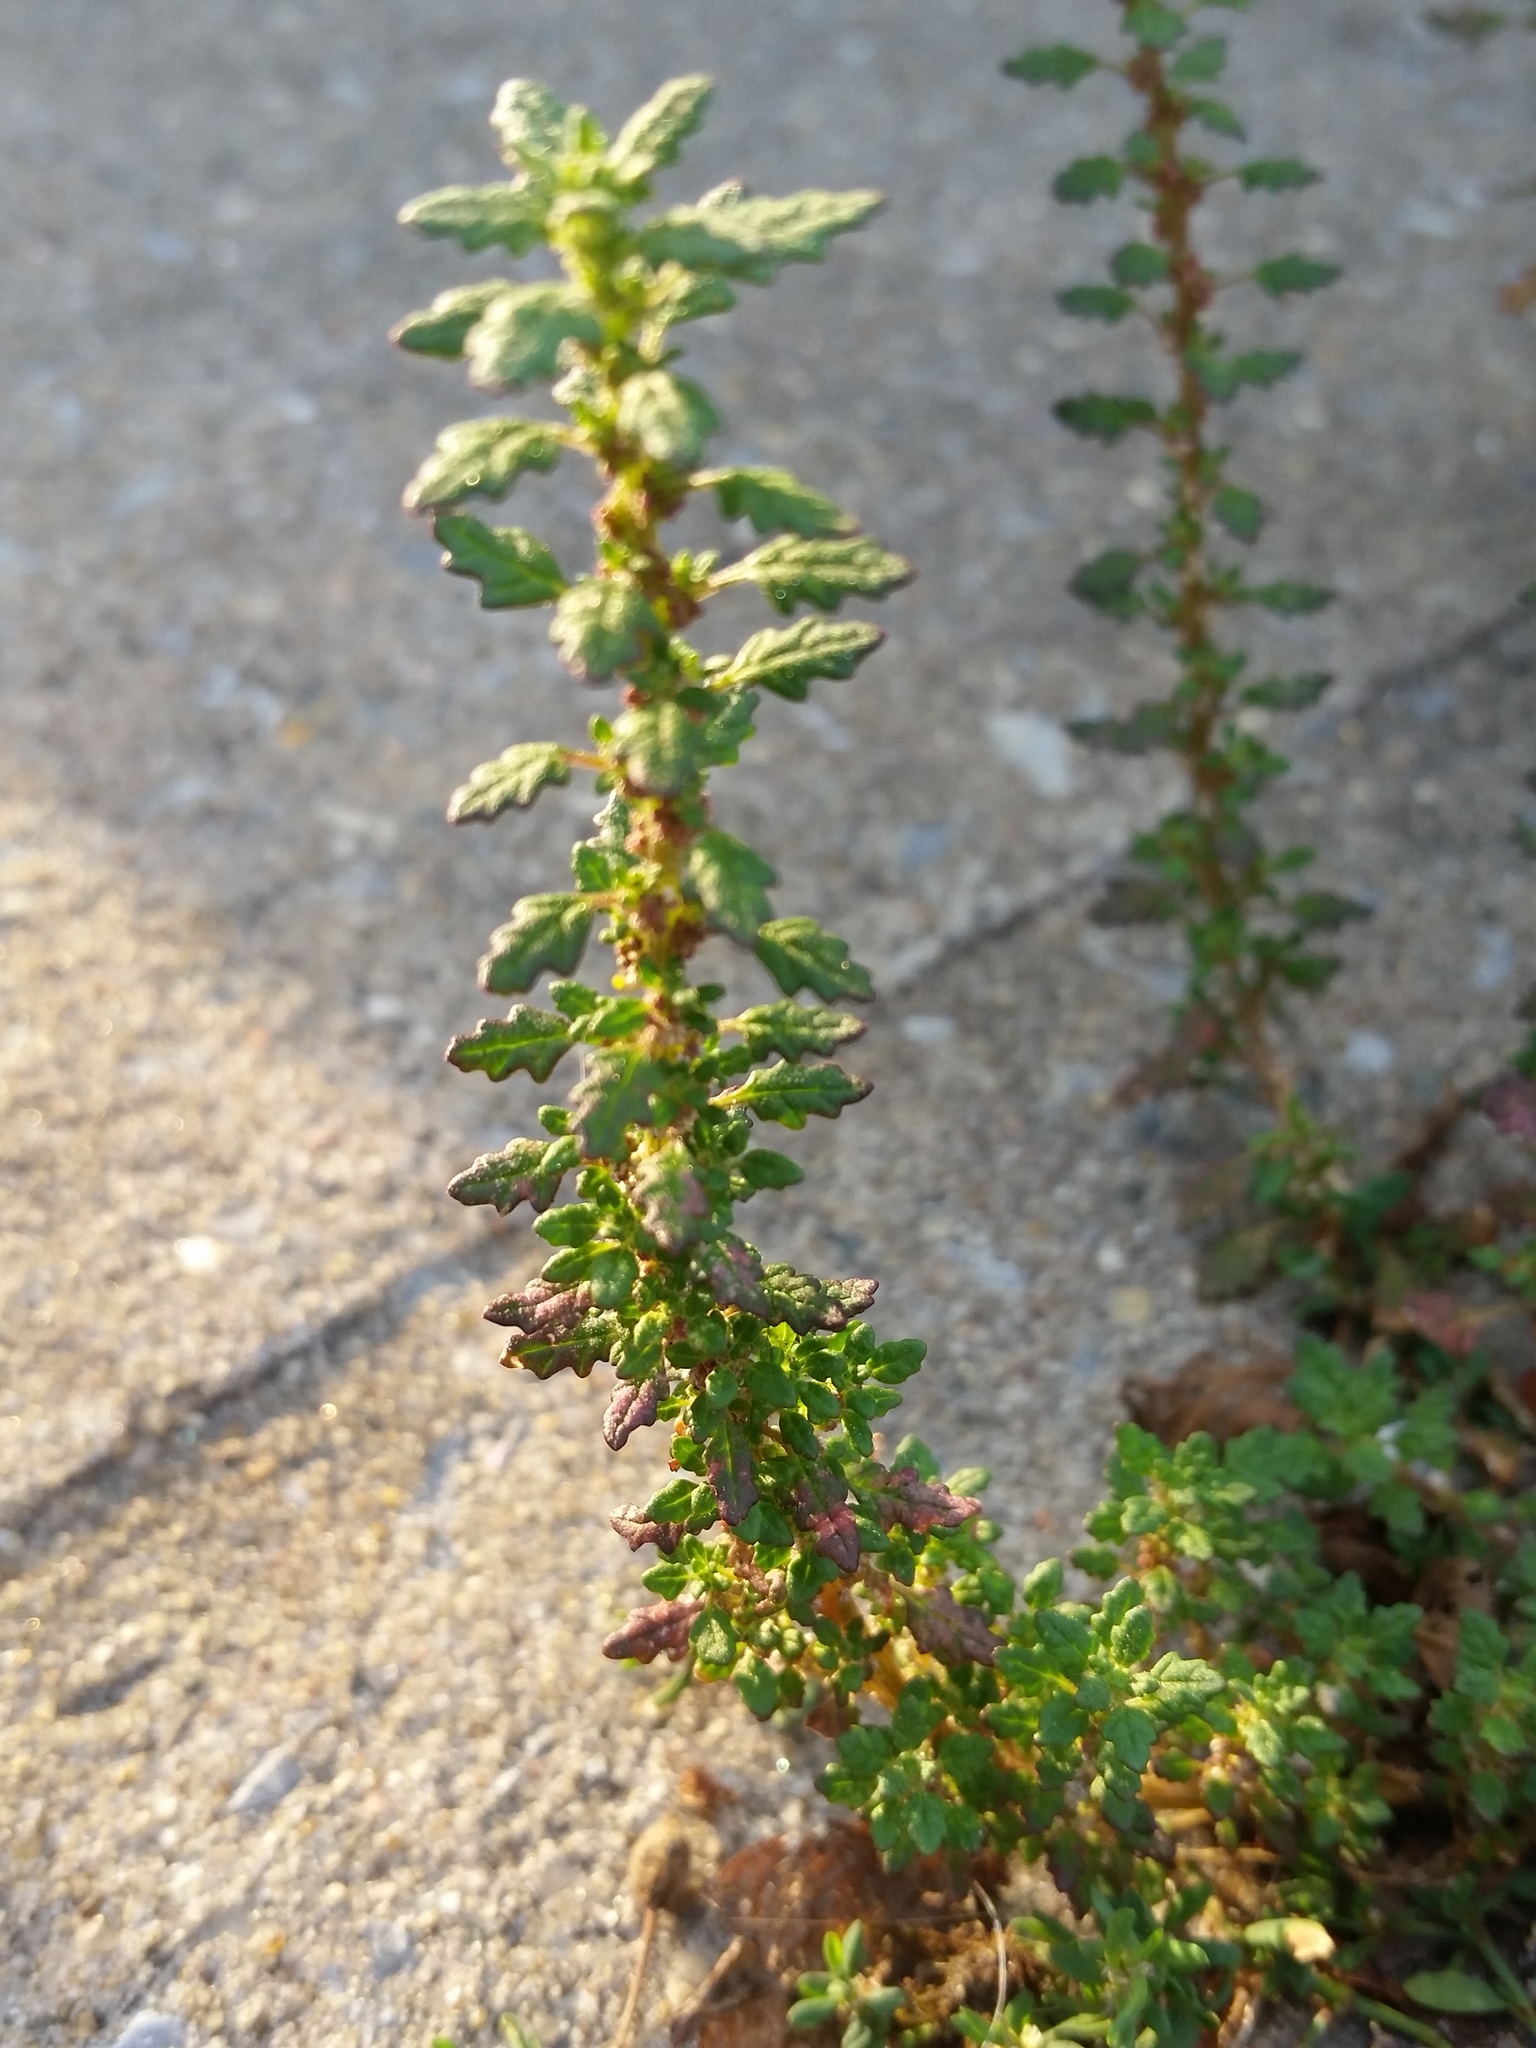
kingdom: Plantae
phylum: Tracheophyta
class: Magnoliopsida
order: Caryophyllales
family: Amaranthaceae
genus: Dysphania
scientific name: Dysphania pumilio
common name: Clammy goosefoot
